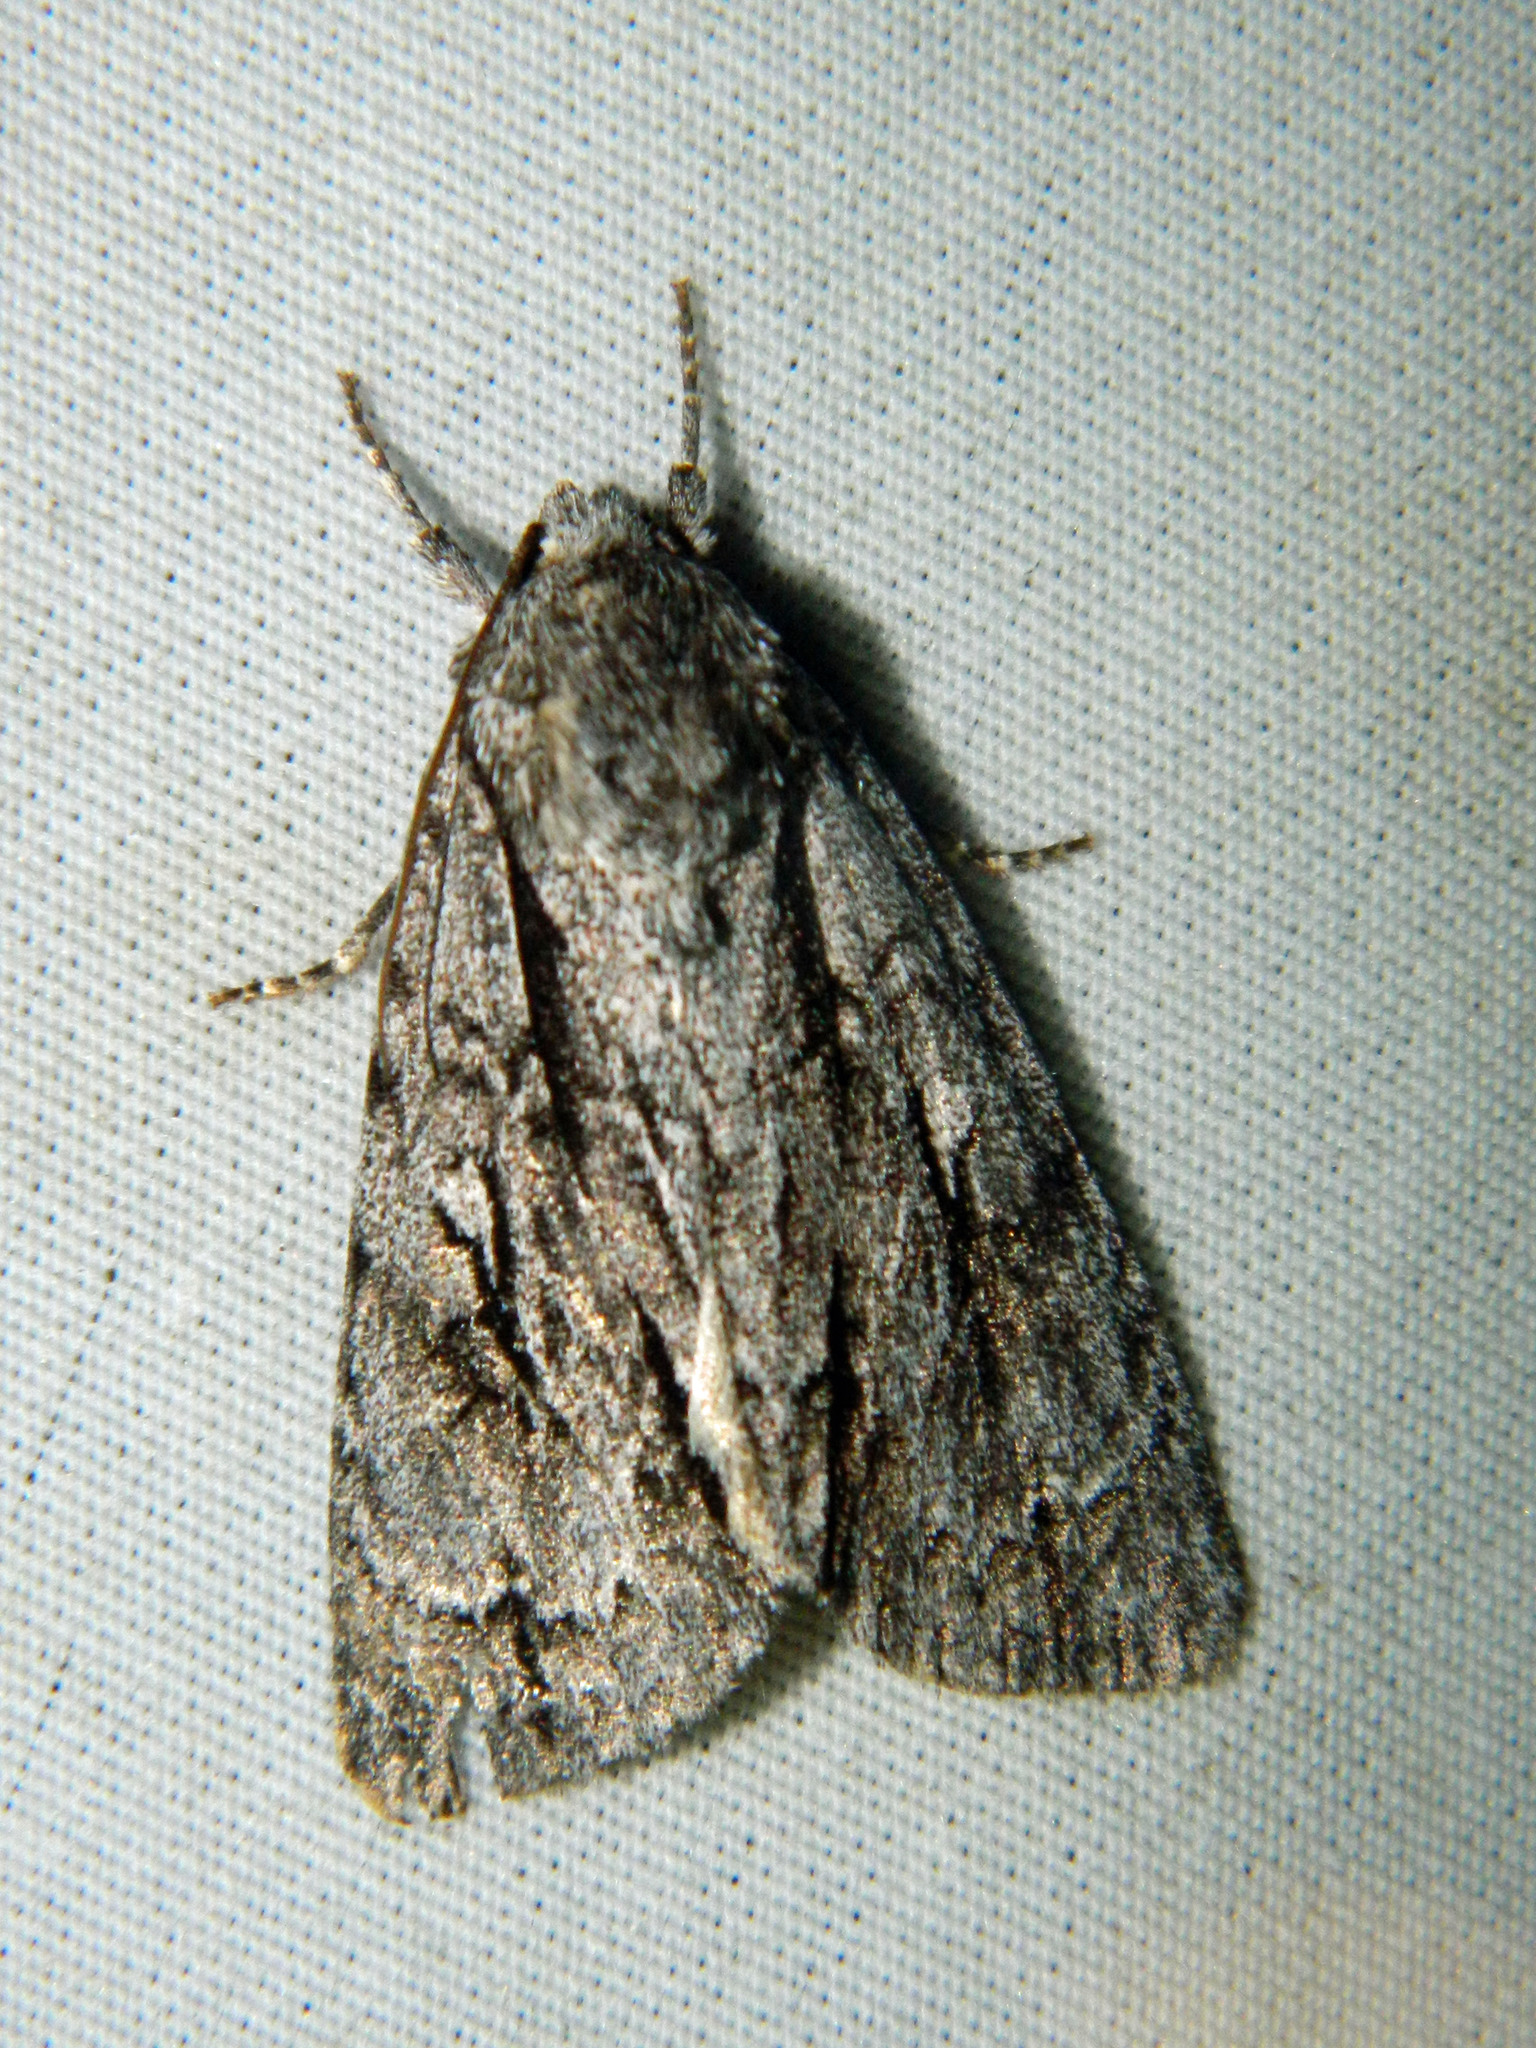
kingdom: Animalia
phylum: Arthropoda
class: Insecta
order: Lepidoptera
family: Noctuidae
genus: Acronicta
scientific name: Acronicta hasta
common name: Cherry dagger
